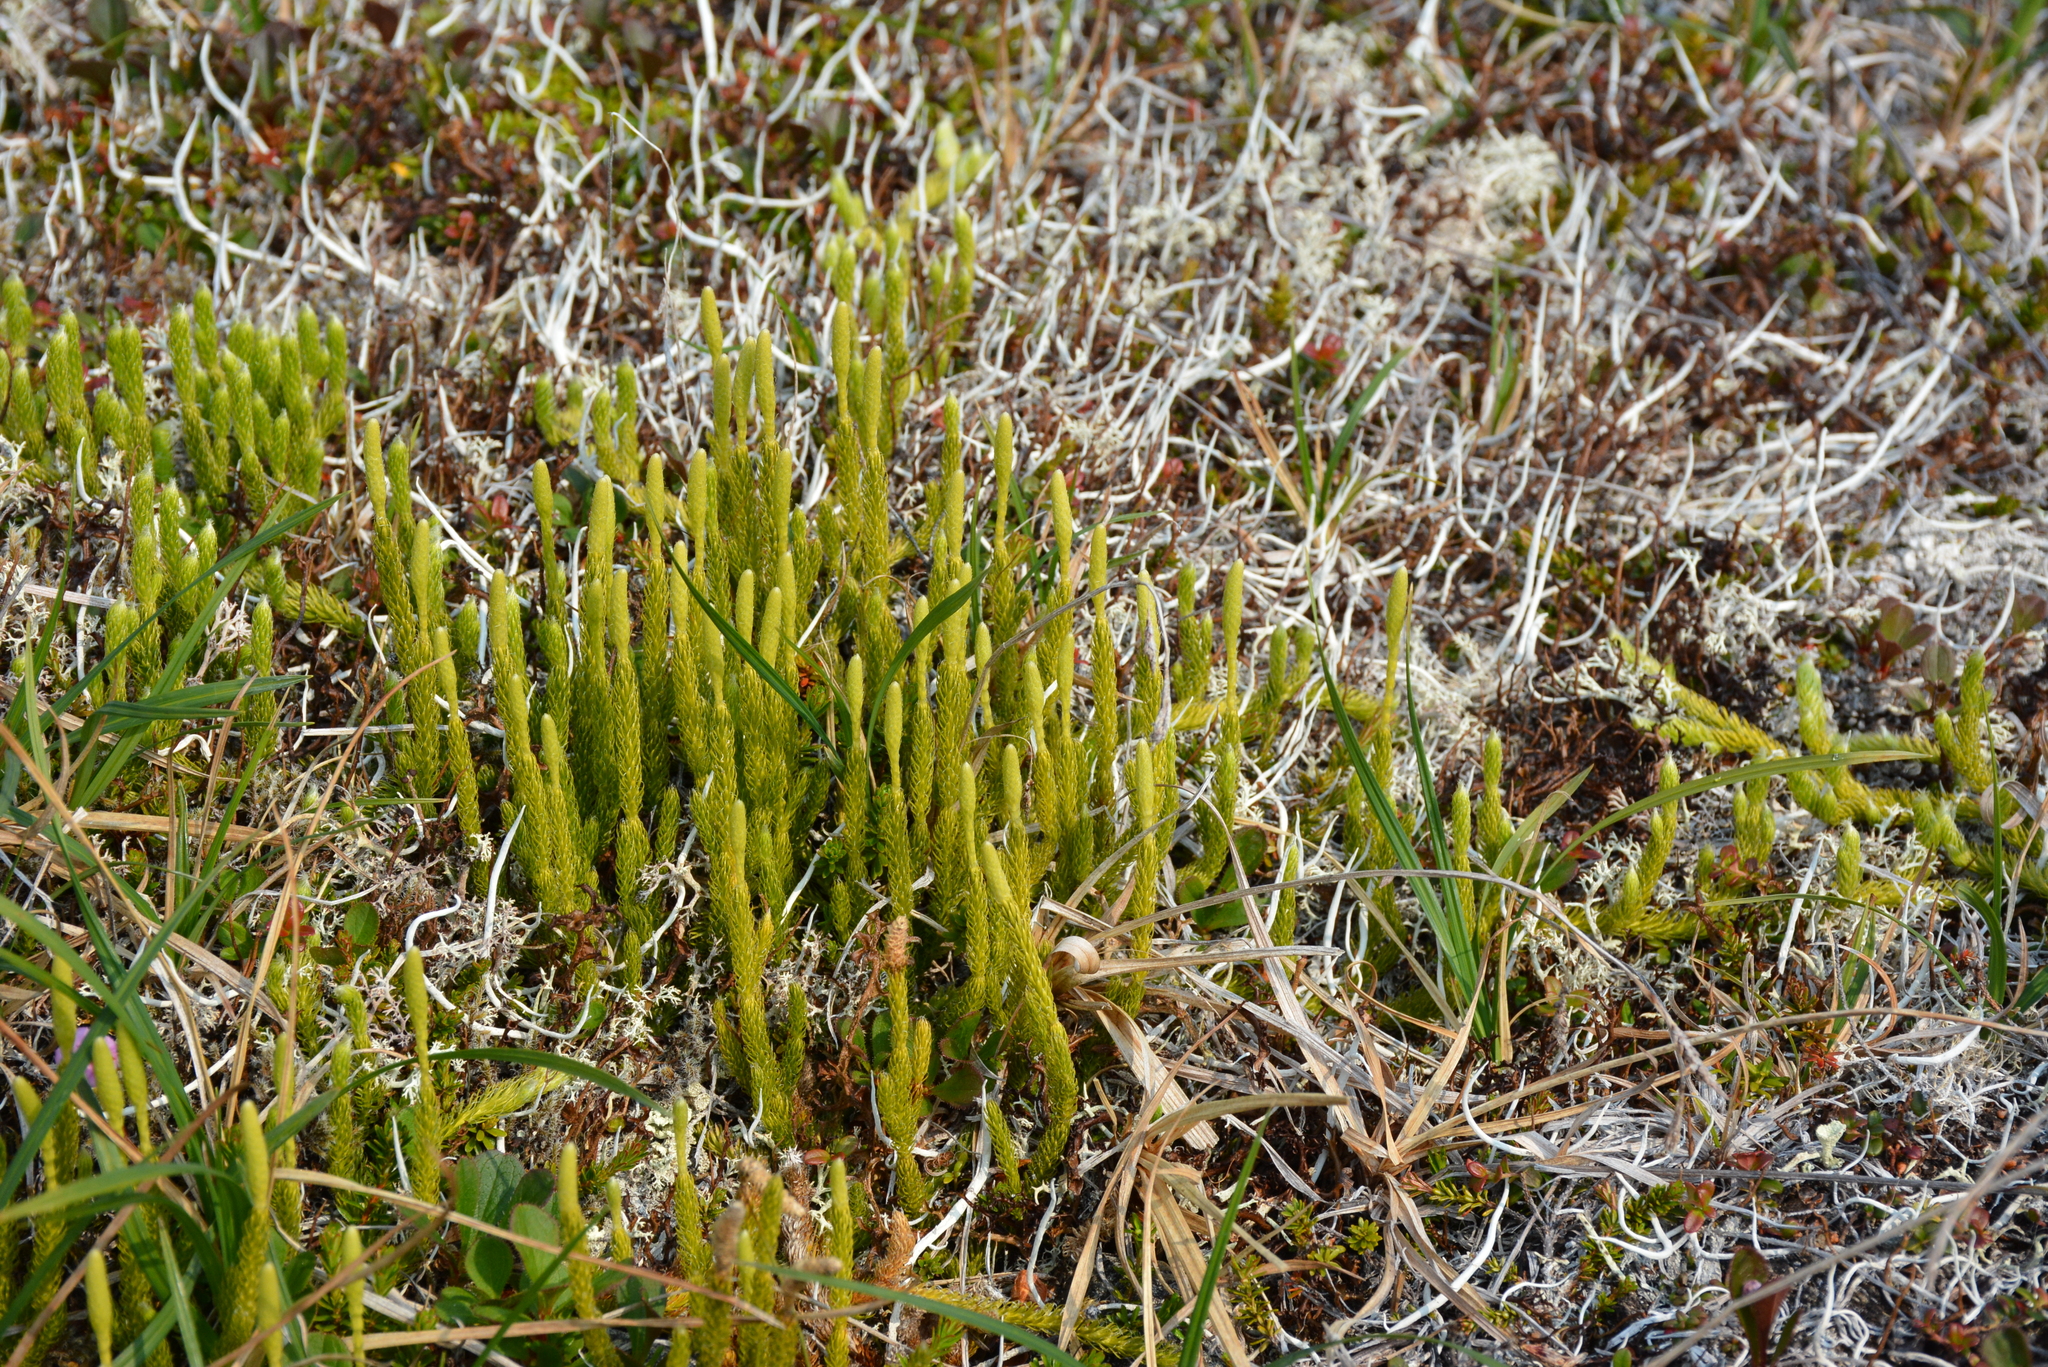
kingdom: Plantae
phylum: Tracheophyta
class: Lycopodiopsida
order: Lycopodiales
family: Lycopodiaceae
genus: Lycopodium
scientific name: Lycopodium lagopus
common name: One-cone clubmoss
